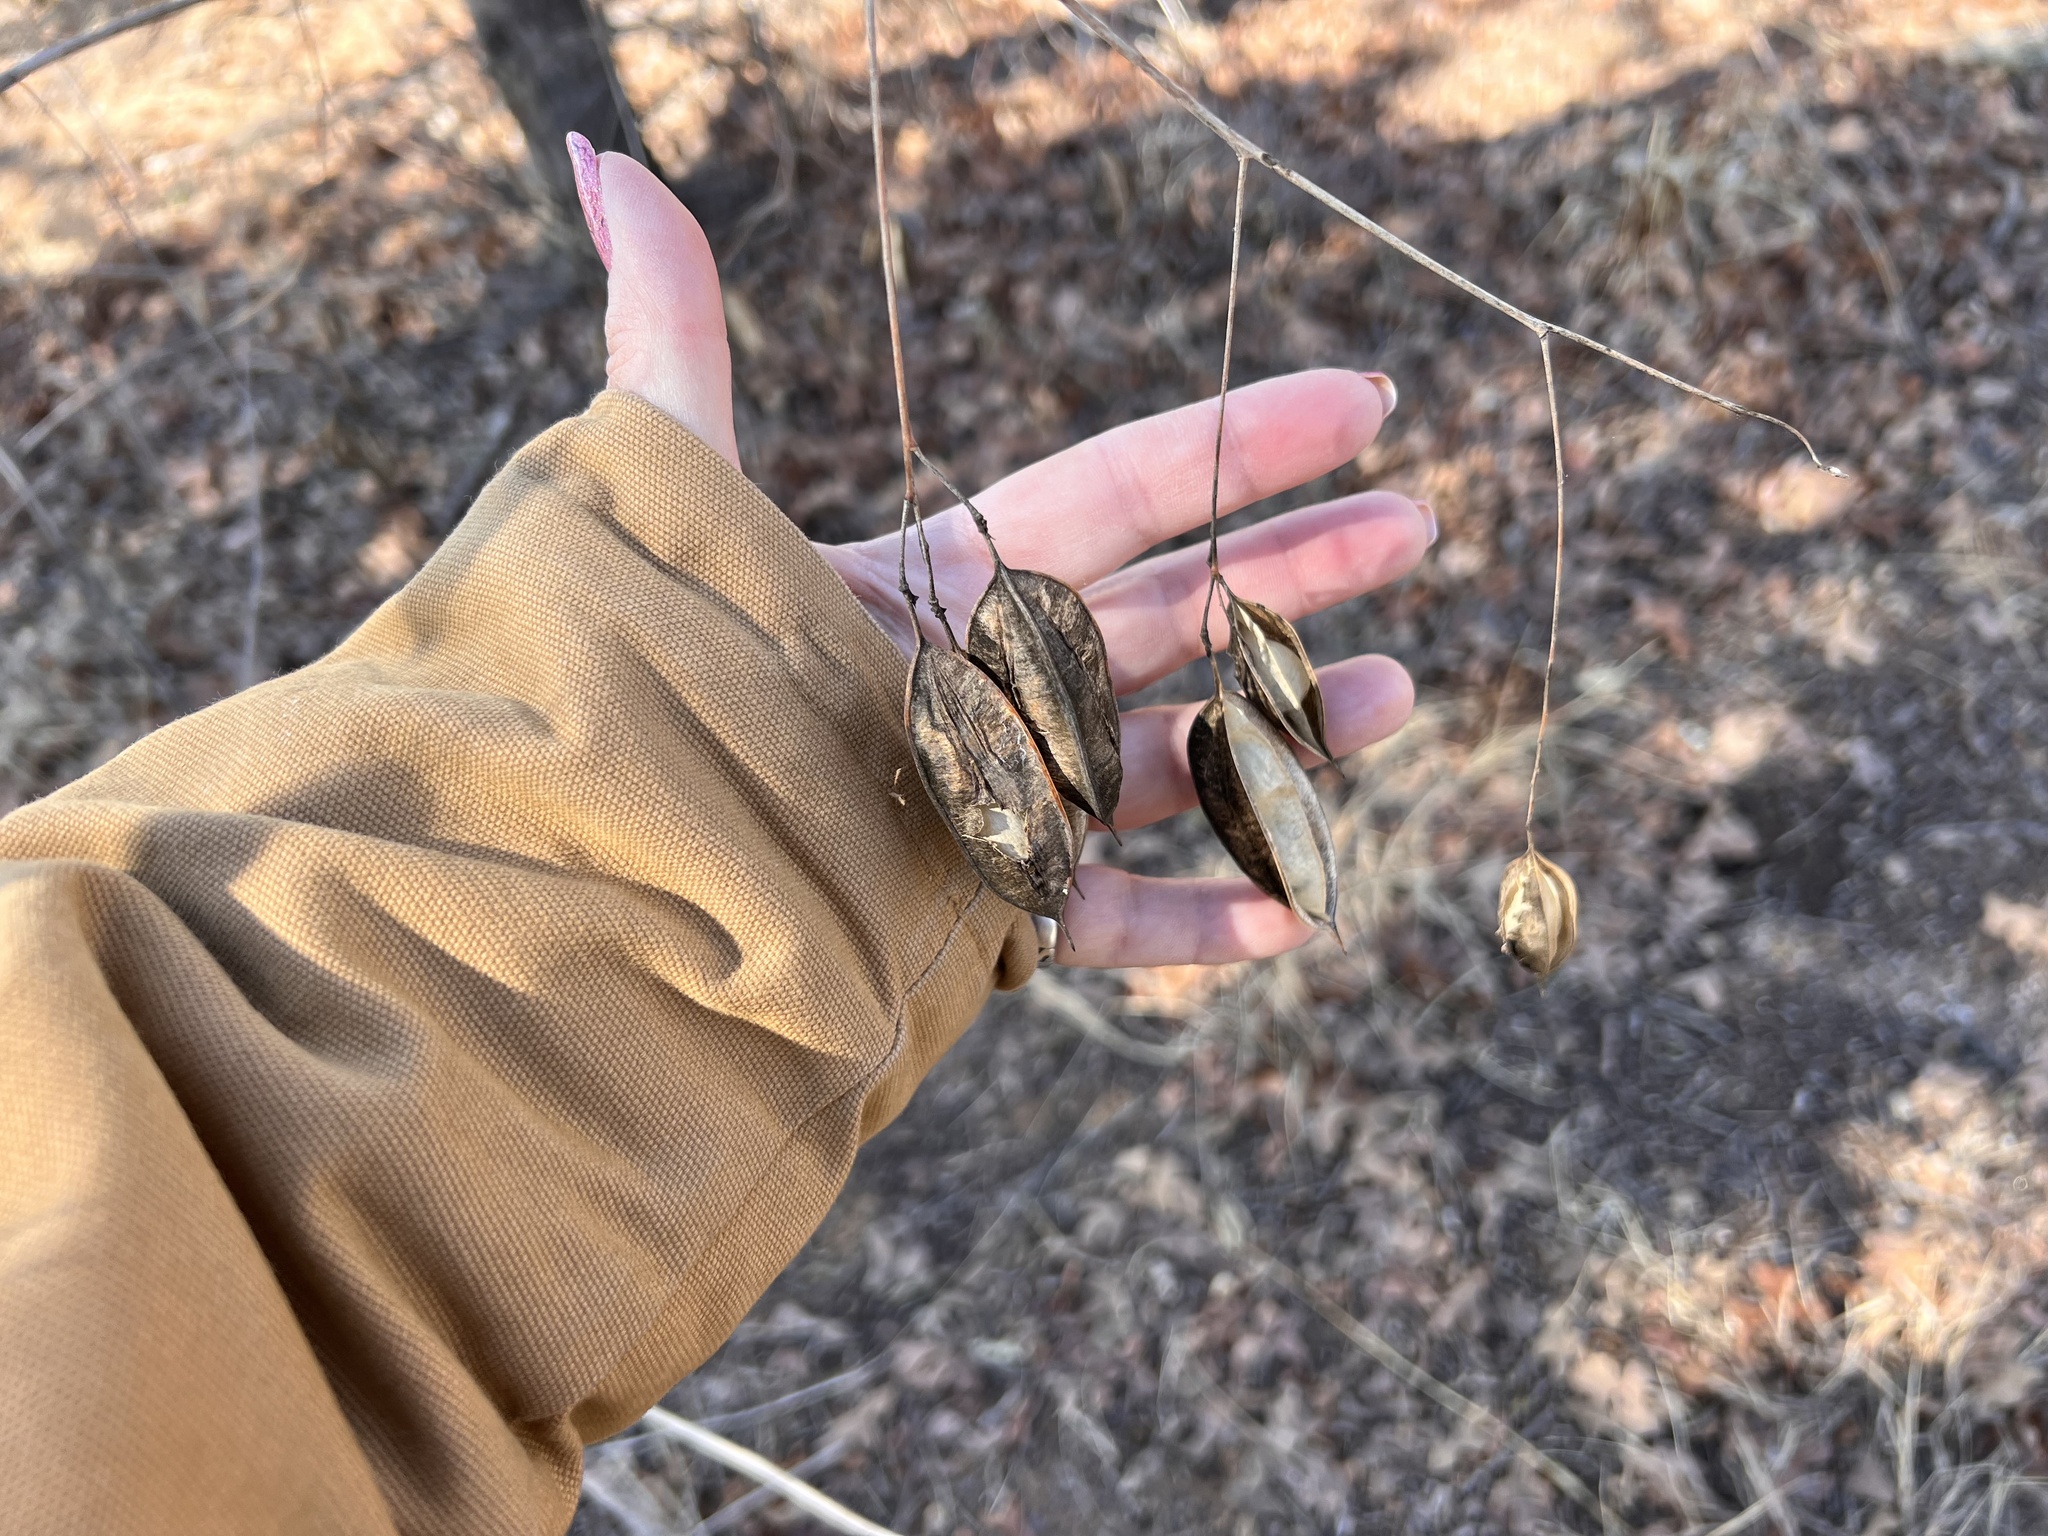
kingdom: Plantae
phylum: Tracheophyta
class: Magnoliopsida
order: Fabales
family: Fabaceae
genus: Sesbania
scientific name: Sesbania vesicaria
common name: Bagpod
